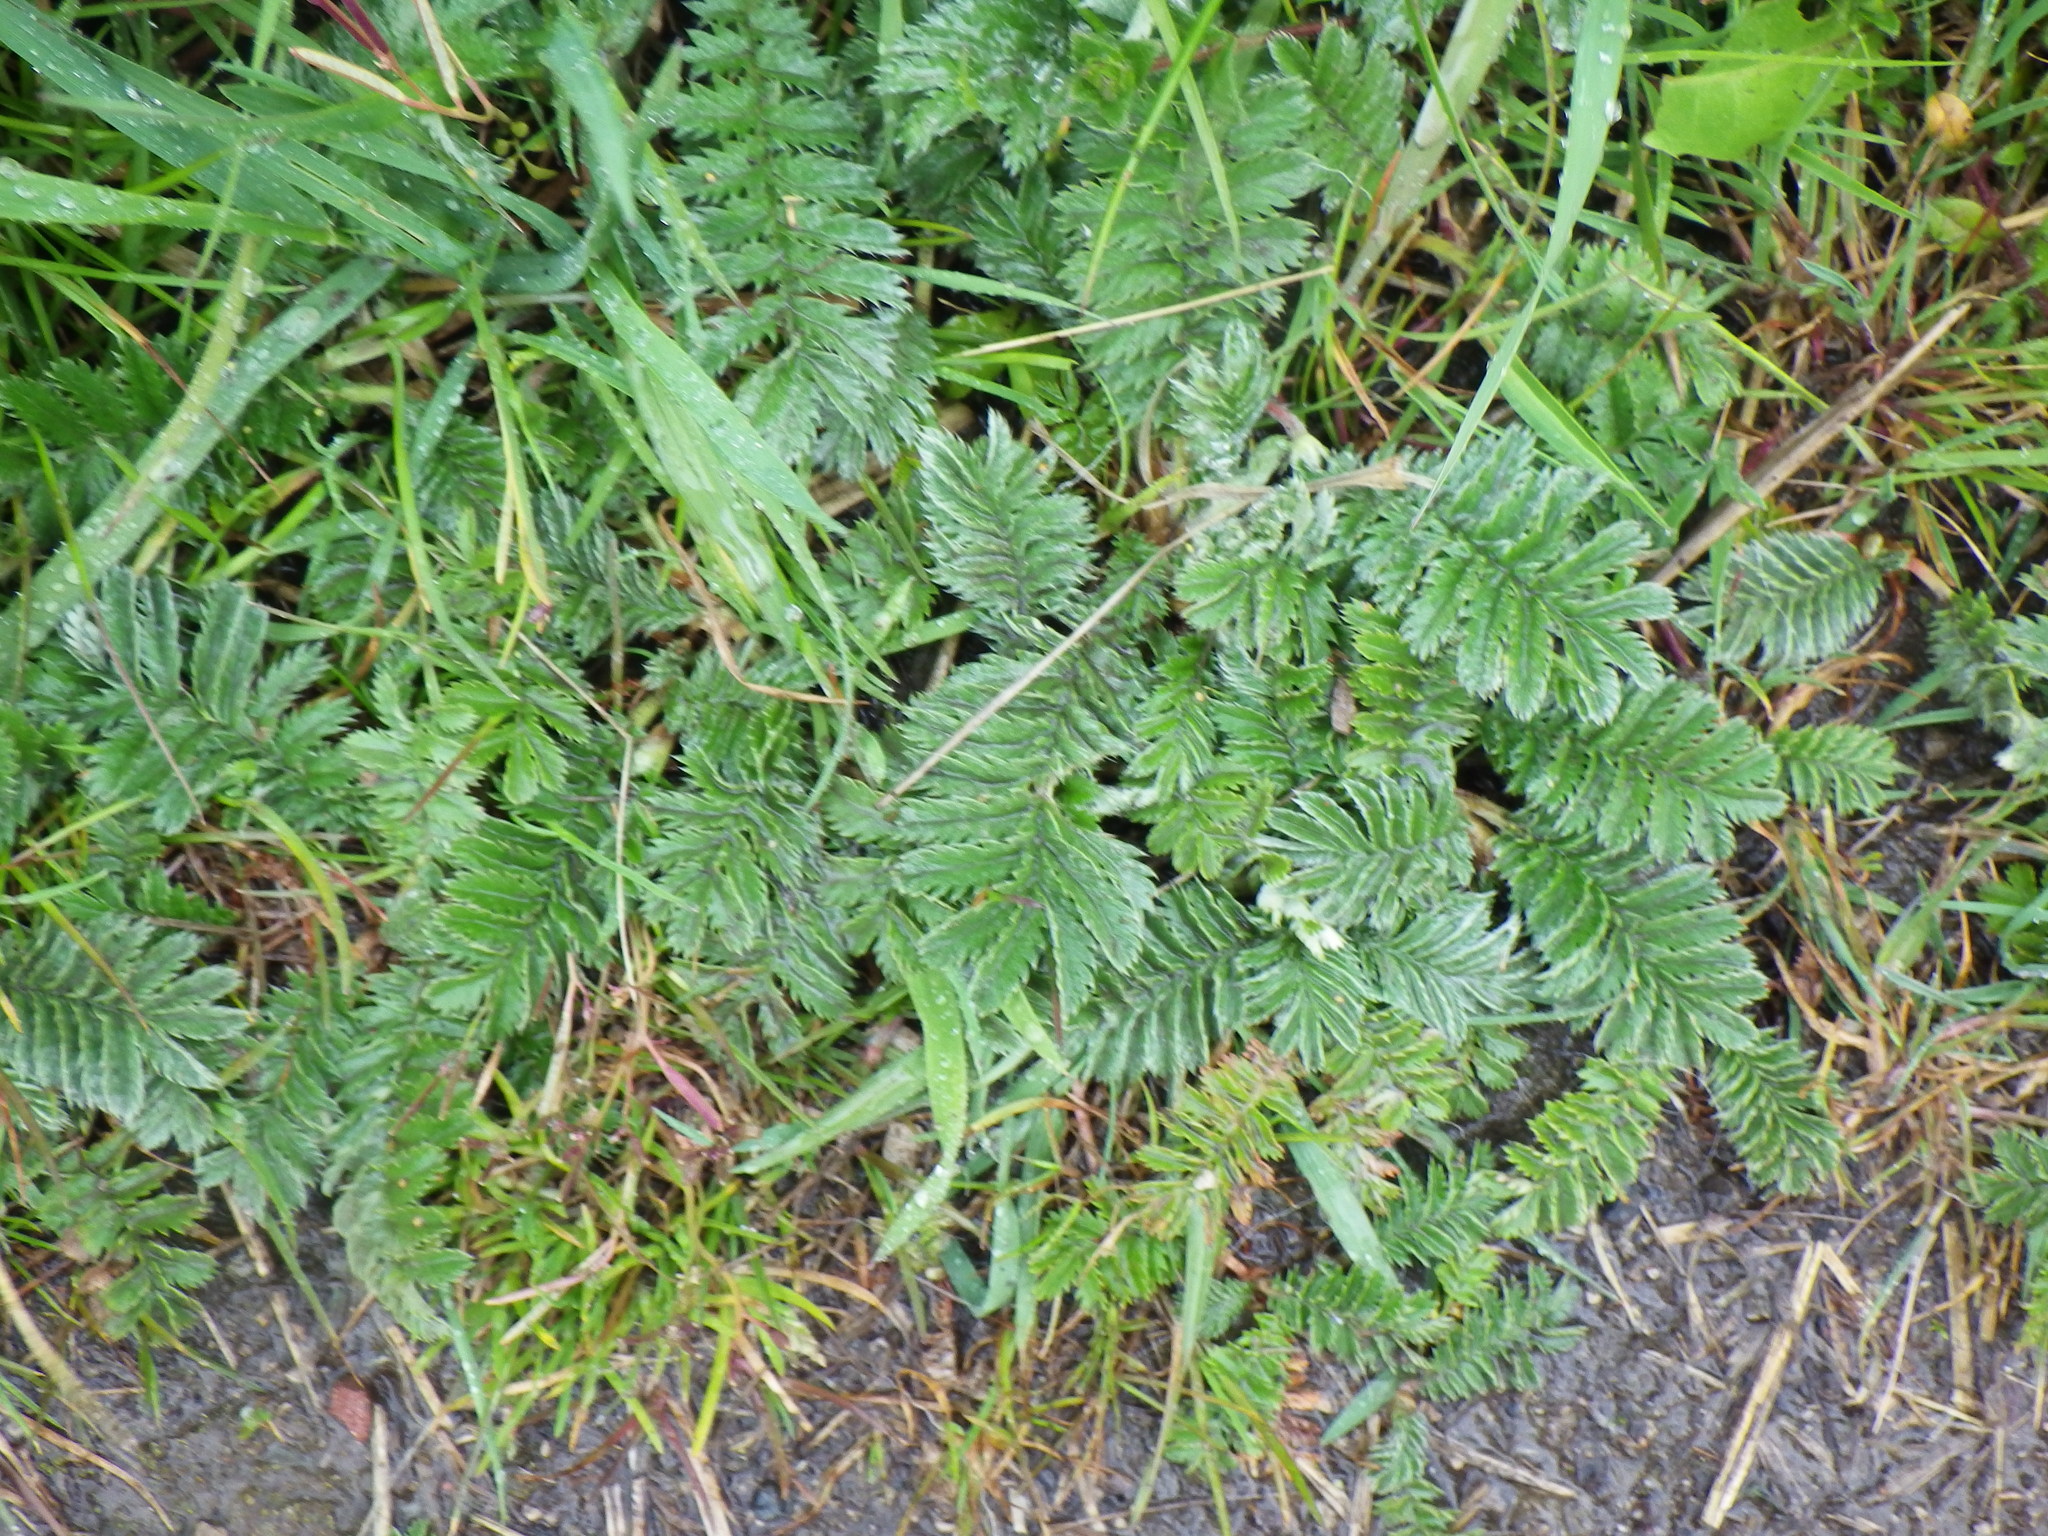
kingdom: Plantae
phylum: Tracheophyta
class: Magnoliopsida
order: Rosales
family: Rosaceae
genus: Argentina
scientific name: Argentina anserina
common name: Common silverweed
